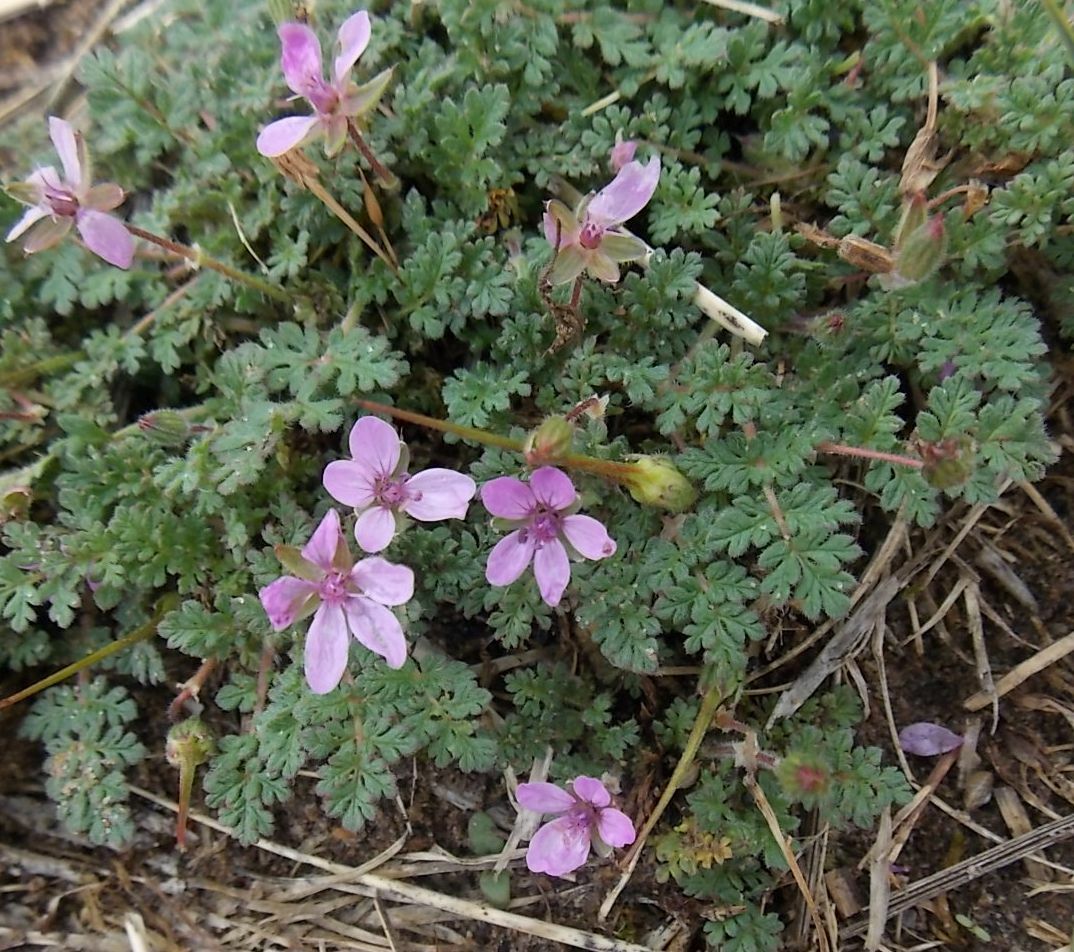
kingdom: Plantae
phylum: Tracheophyta
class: Magnoliopsida
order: Geraniales
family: Geraniaceae
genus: Erodium
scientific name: Erodium cicutarium
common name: Common stork's-bill
